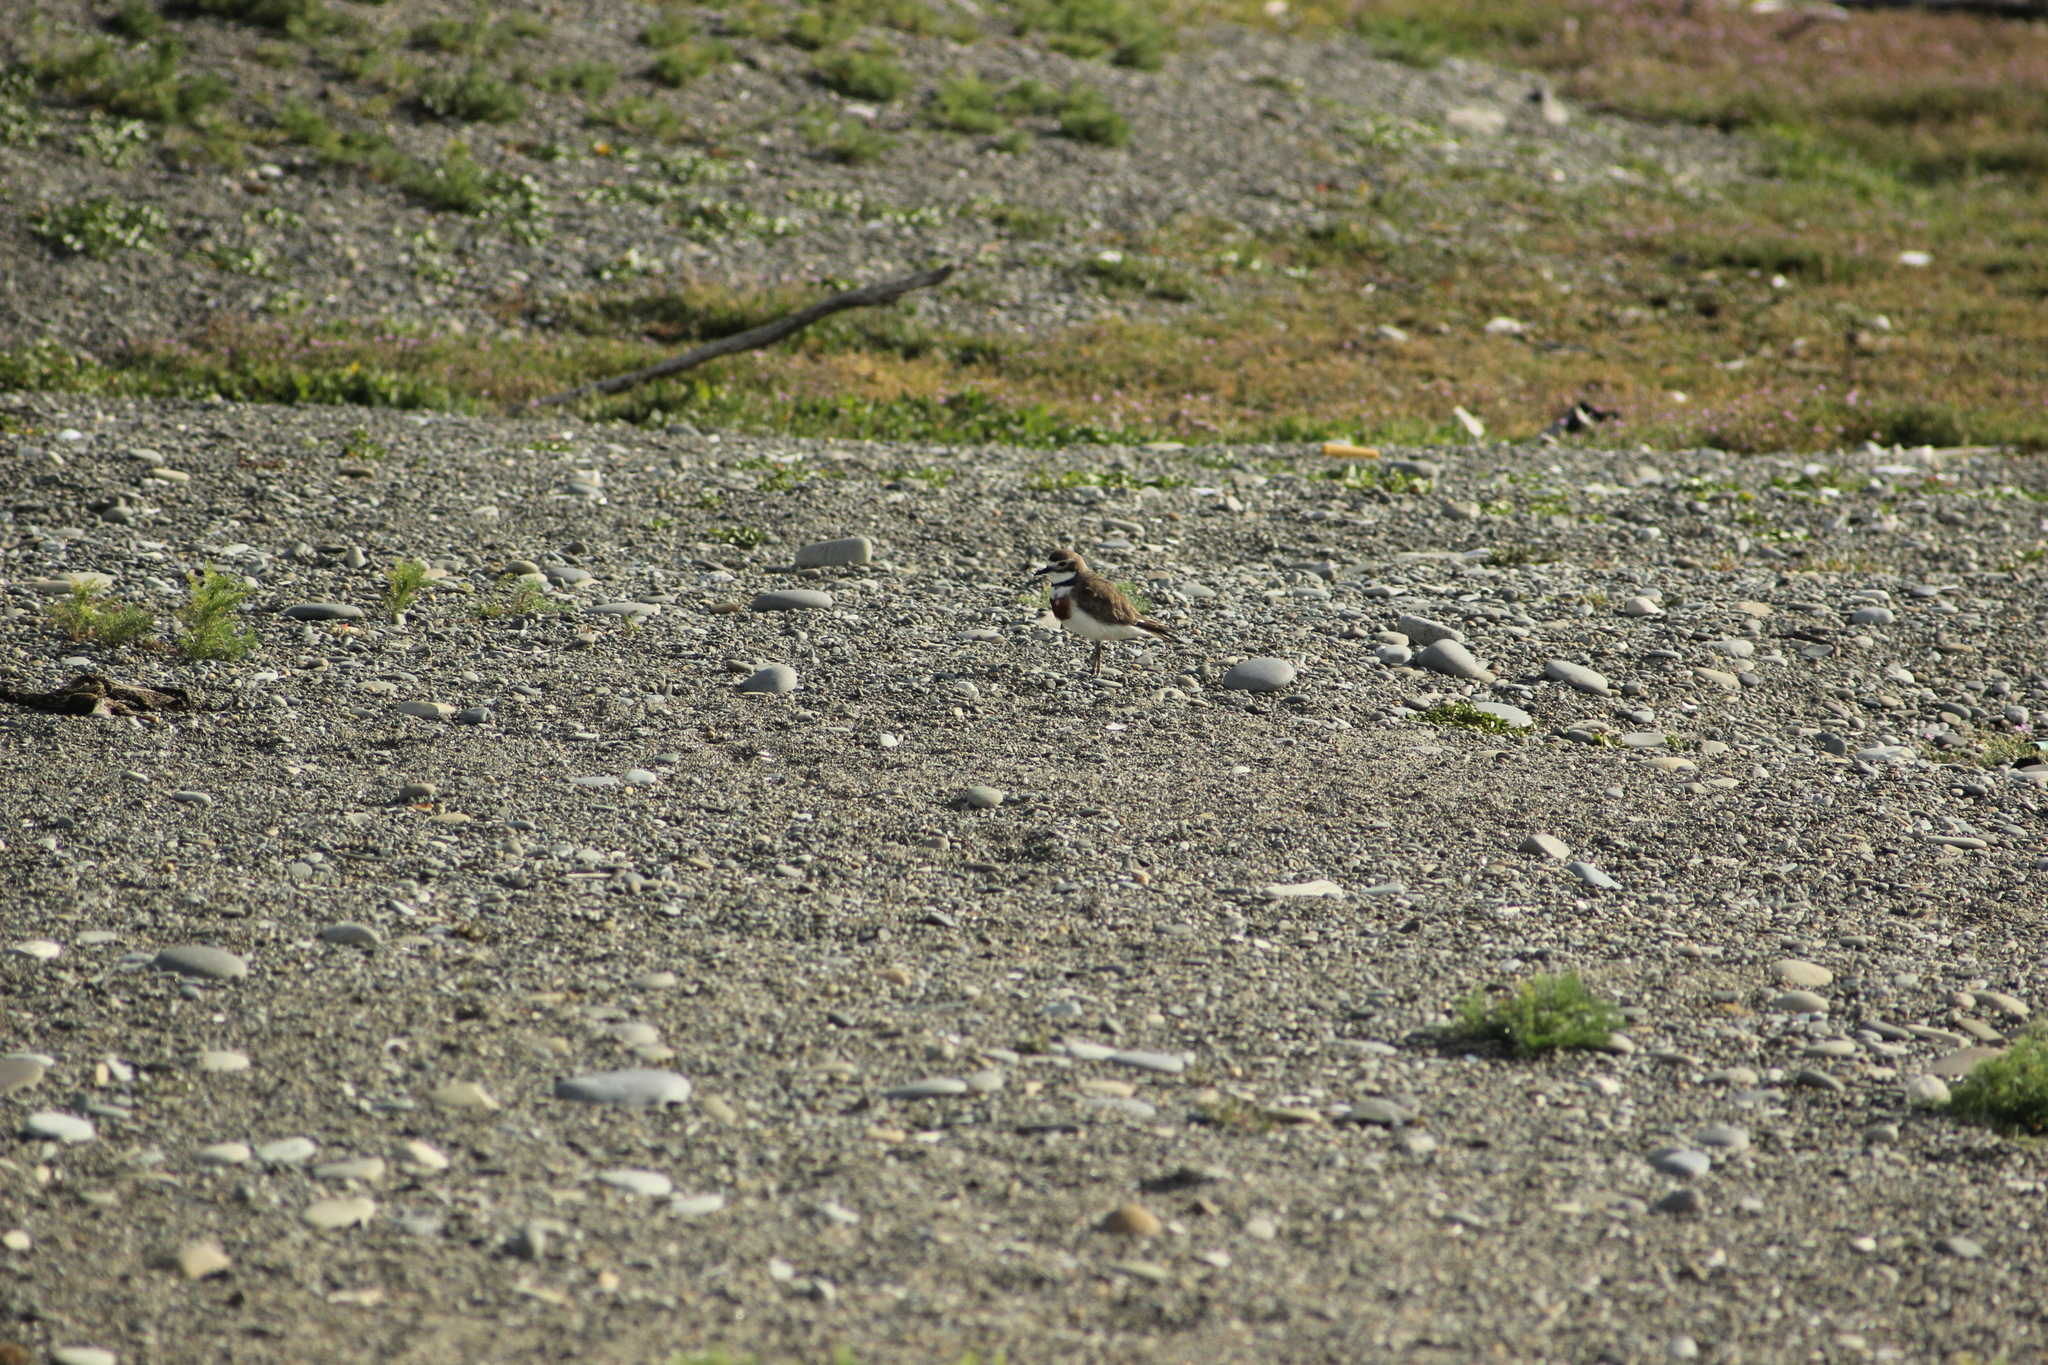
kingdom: Animalia
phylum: Chordata
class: Aves
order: Charadriiformes
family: Charadriidae
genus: Anarhynchus
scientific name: Anarhynchus
